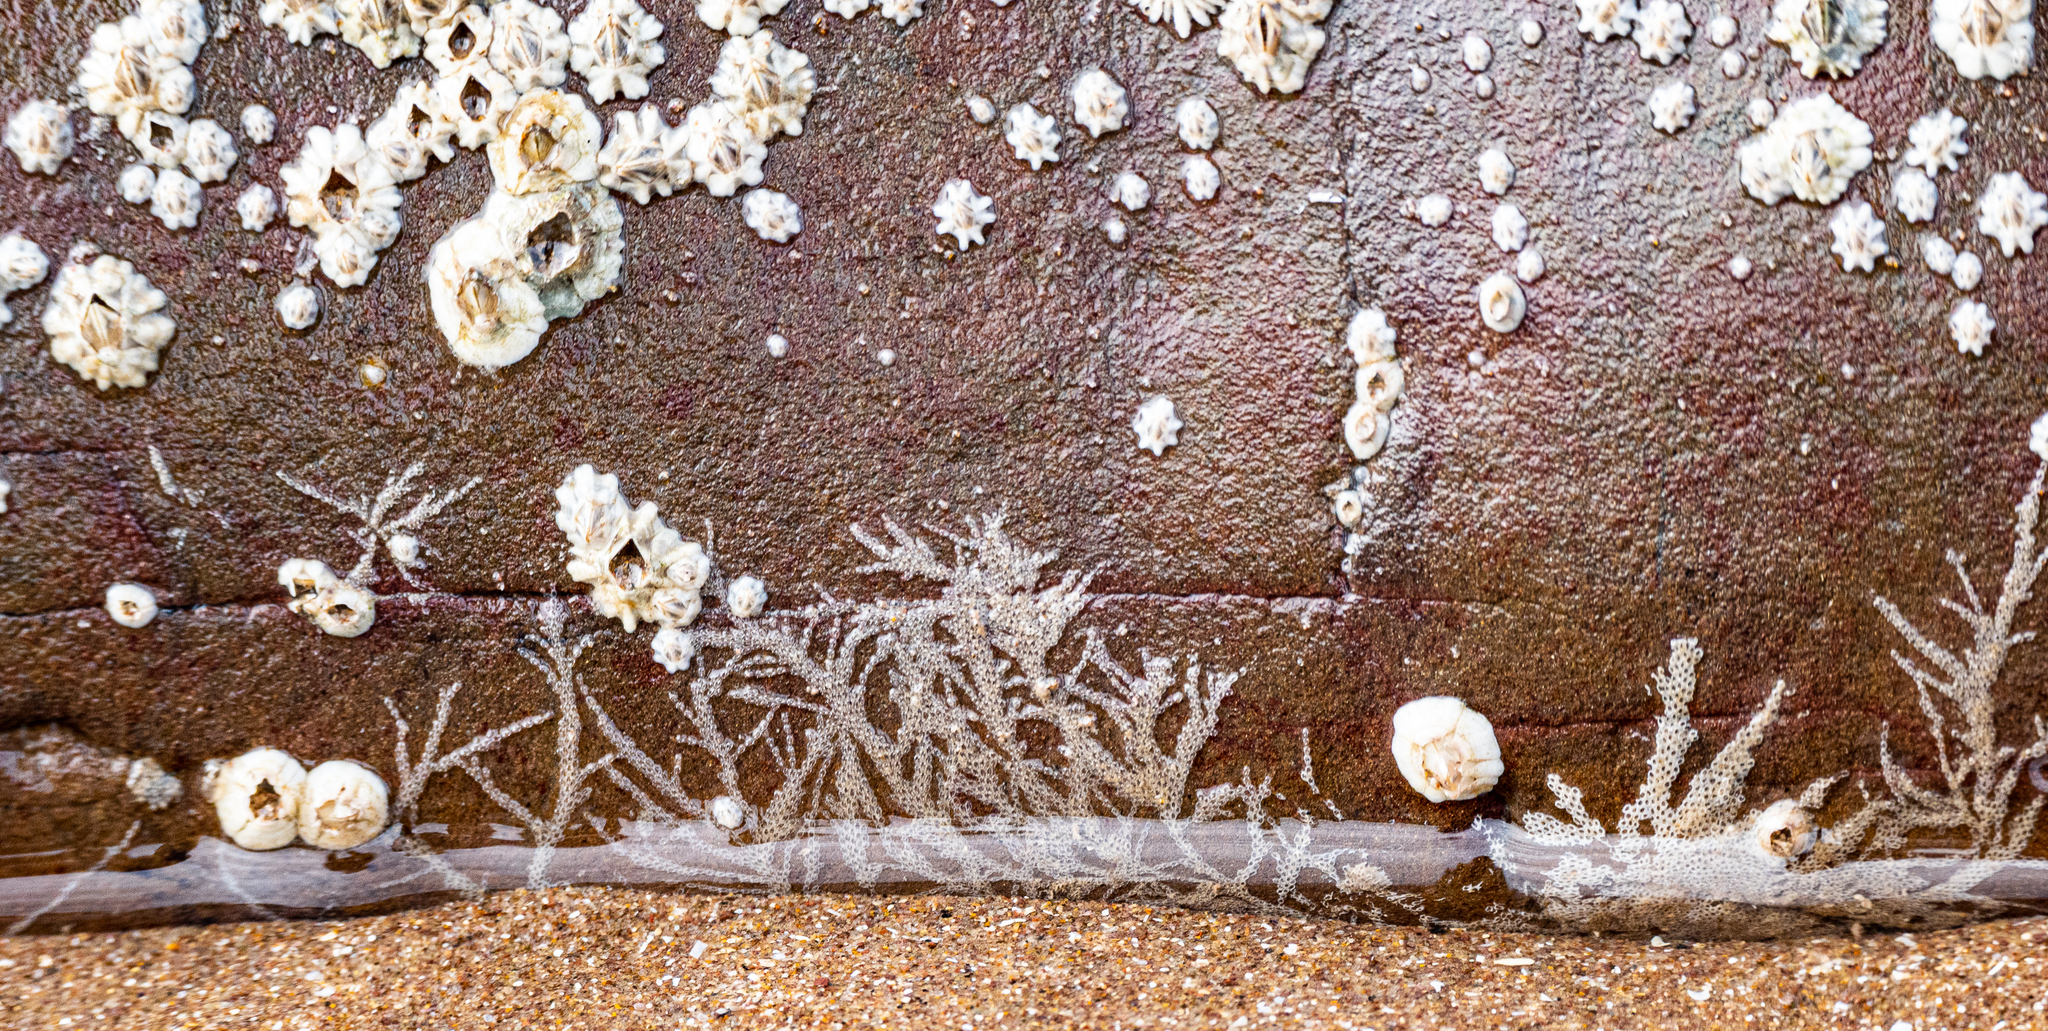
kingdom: Animalia
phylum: Bryozoa
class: Gymnolaemata
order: Cheilostomatida
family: Electridae
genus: Electra
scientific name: Electra pilosa
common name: Hairy sea-mat
